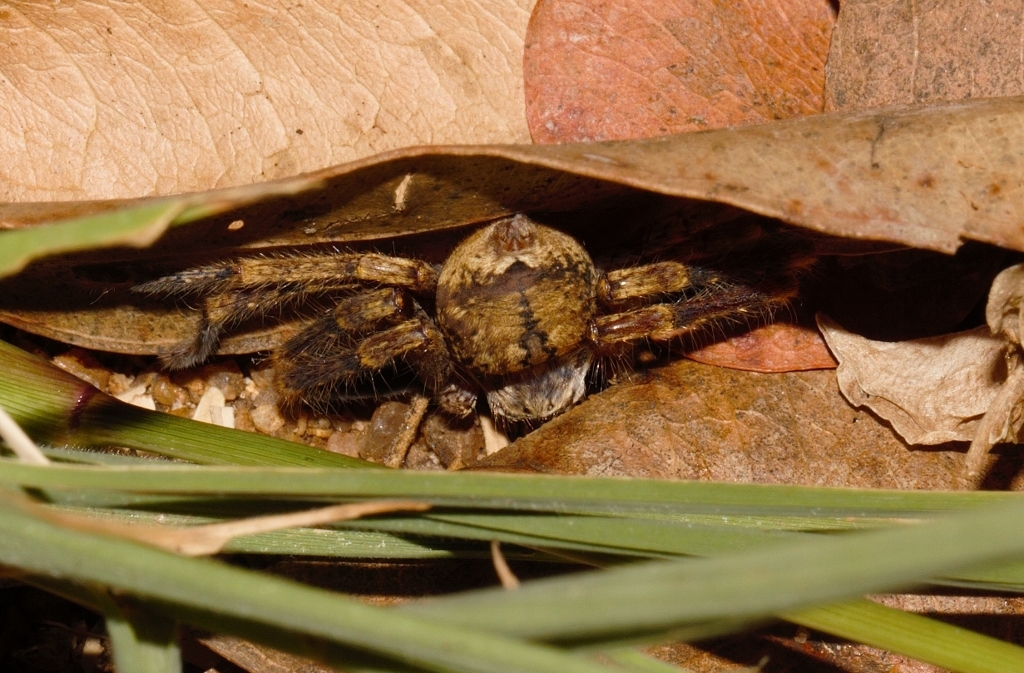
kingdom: Animalia
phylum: Arthropoda
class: Arachnida
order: Araneae
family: Sparassidae
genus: Olios
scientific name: Olios sjostedti
